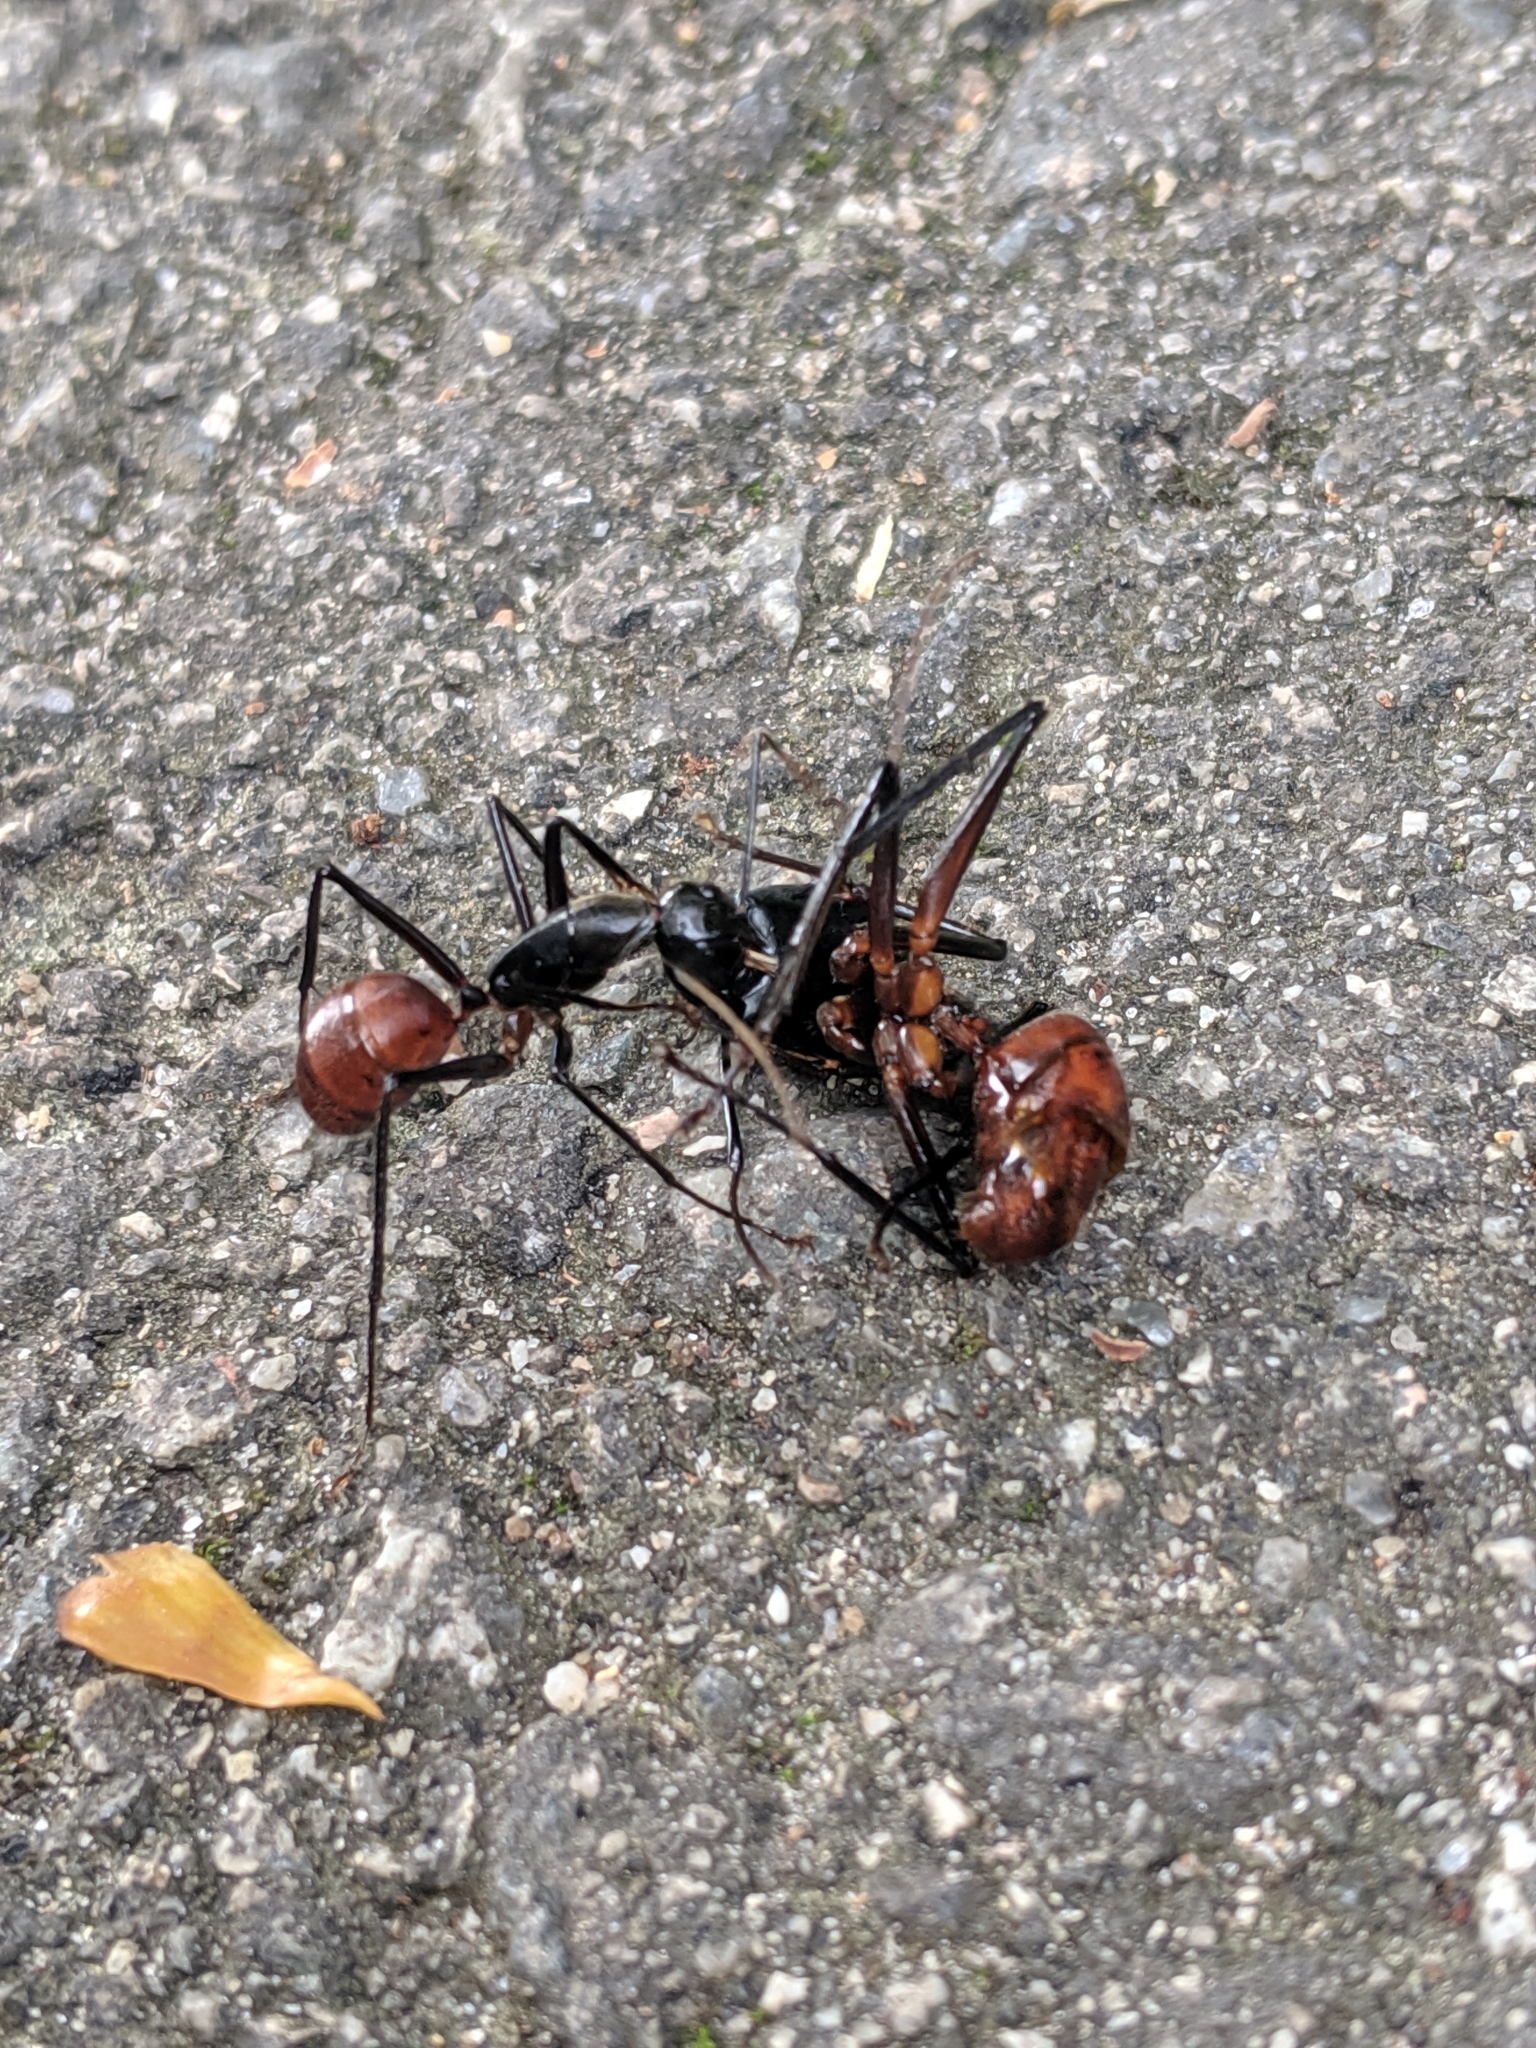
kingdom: Animalia
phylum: Arthropoda
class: Insecta
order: Hymenoptera
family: Formicidae
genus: Dinomyrmex
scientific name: Dinomyrmex
